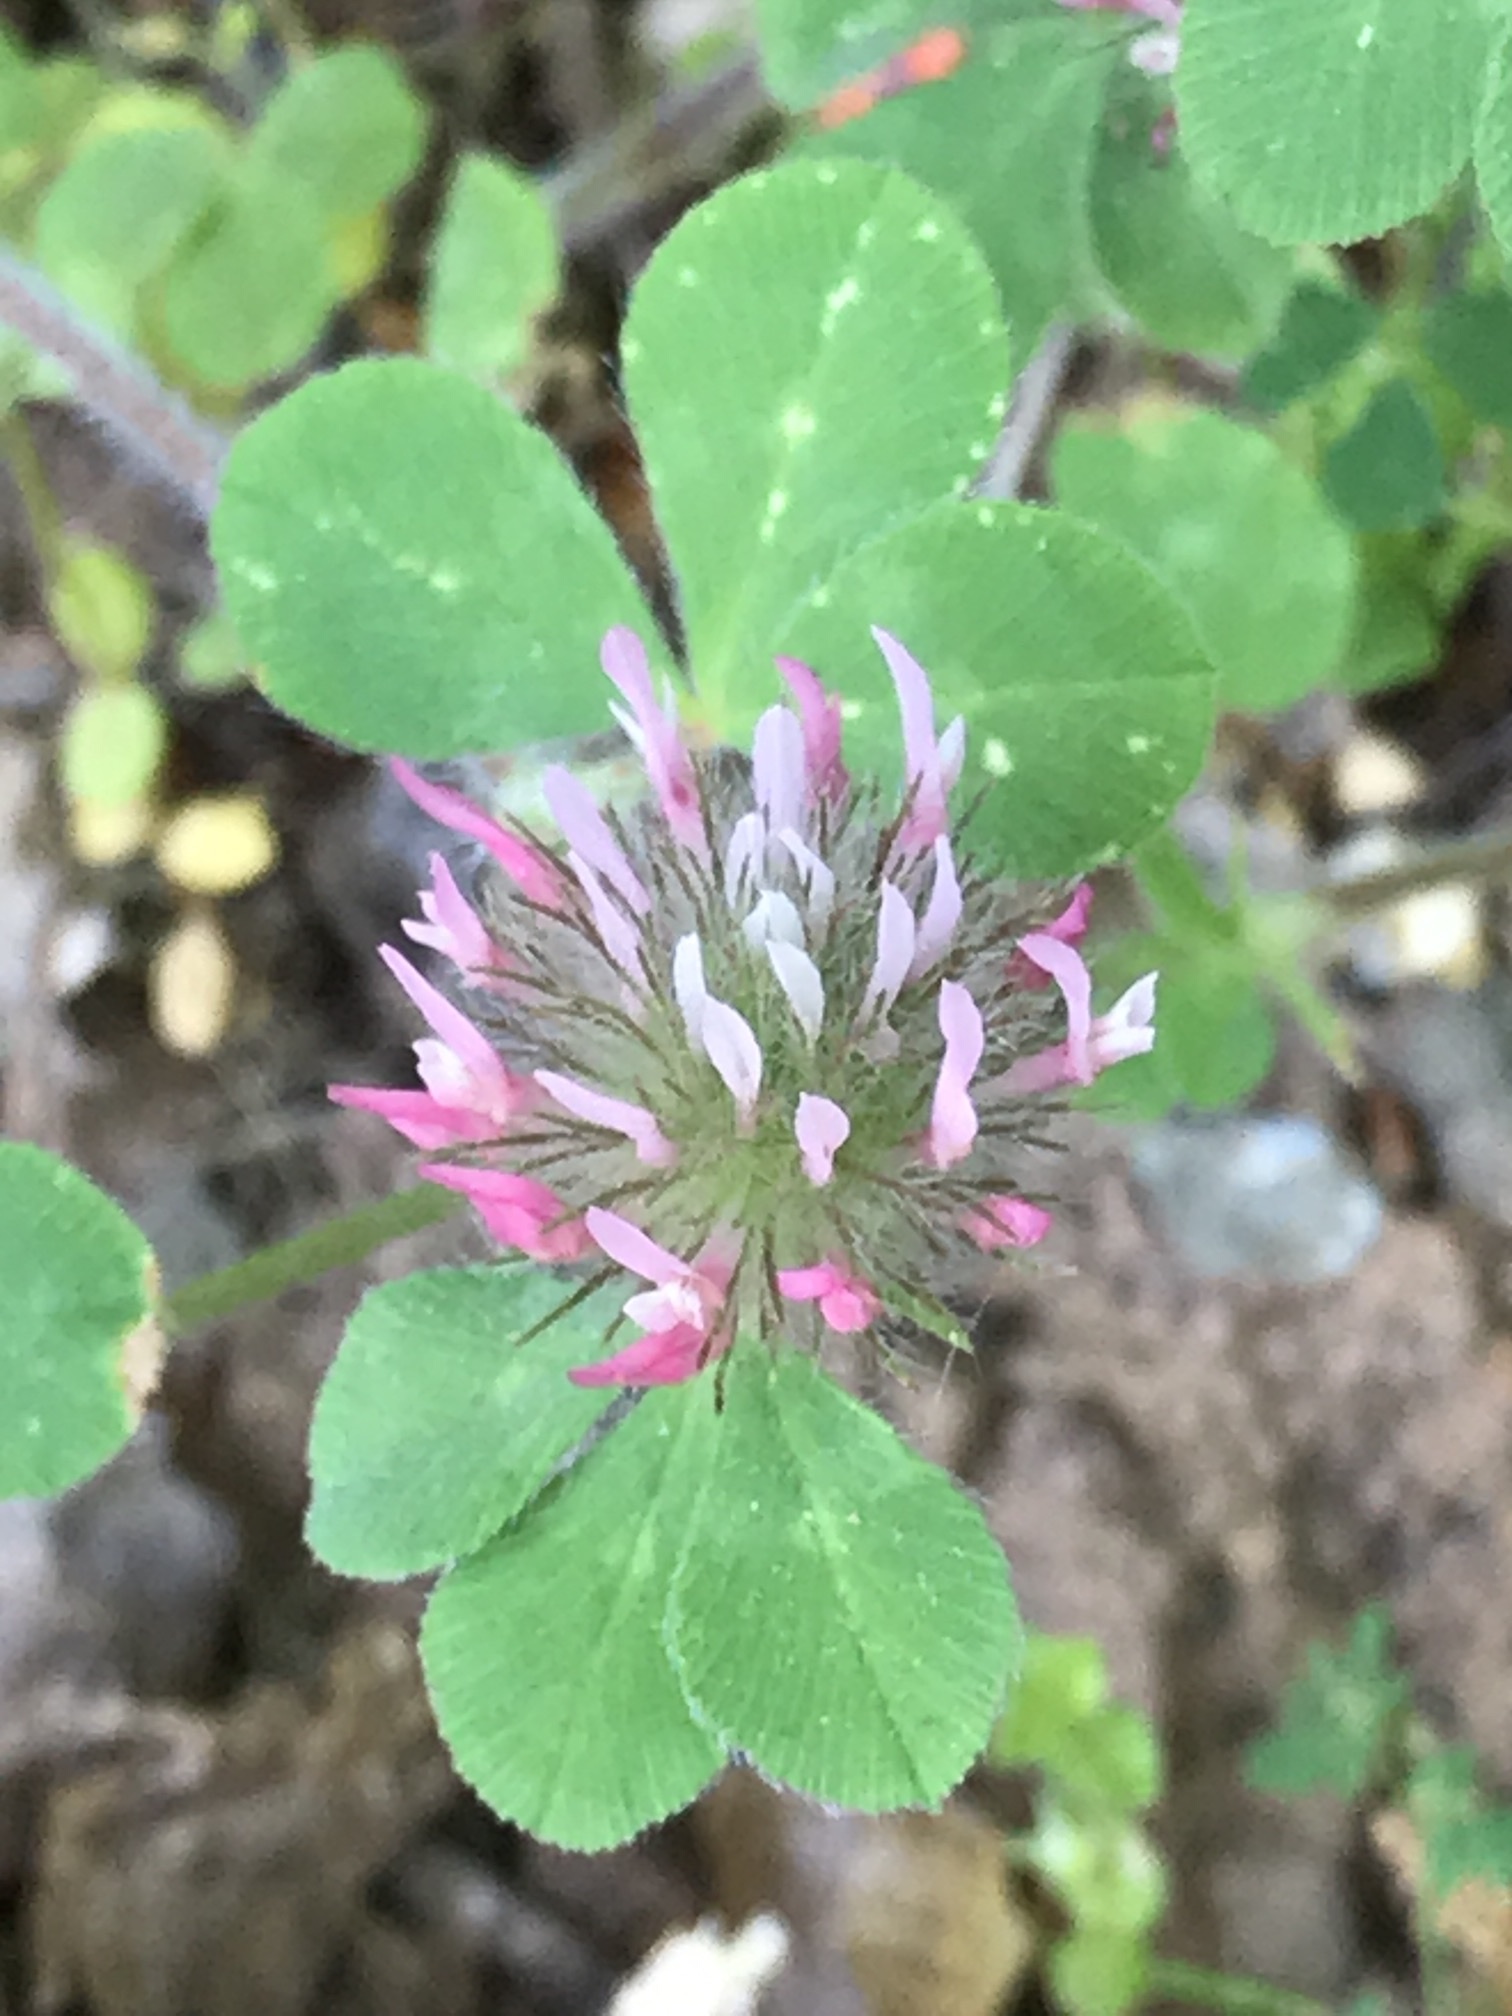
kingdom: Plantae
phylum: Tracheophyta
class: Magnoliopsida
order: Fabales
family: Fabaceae
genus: Trifolium
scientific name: Trifolium hirtum
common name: Rose clover
